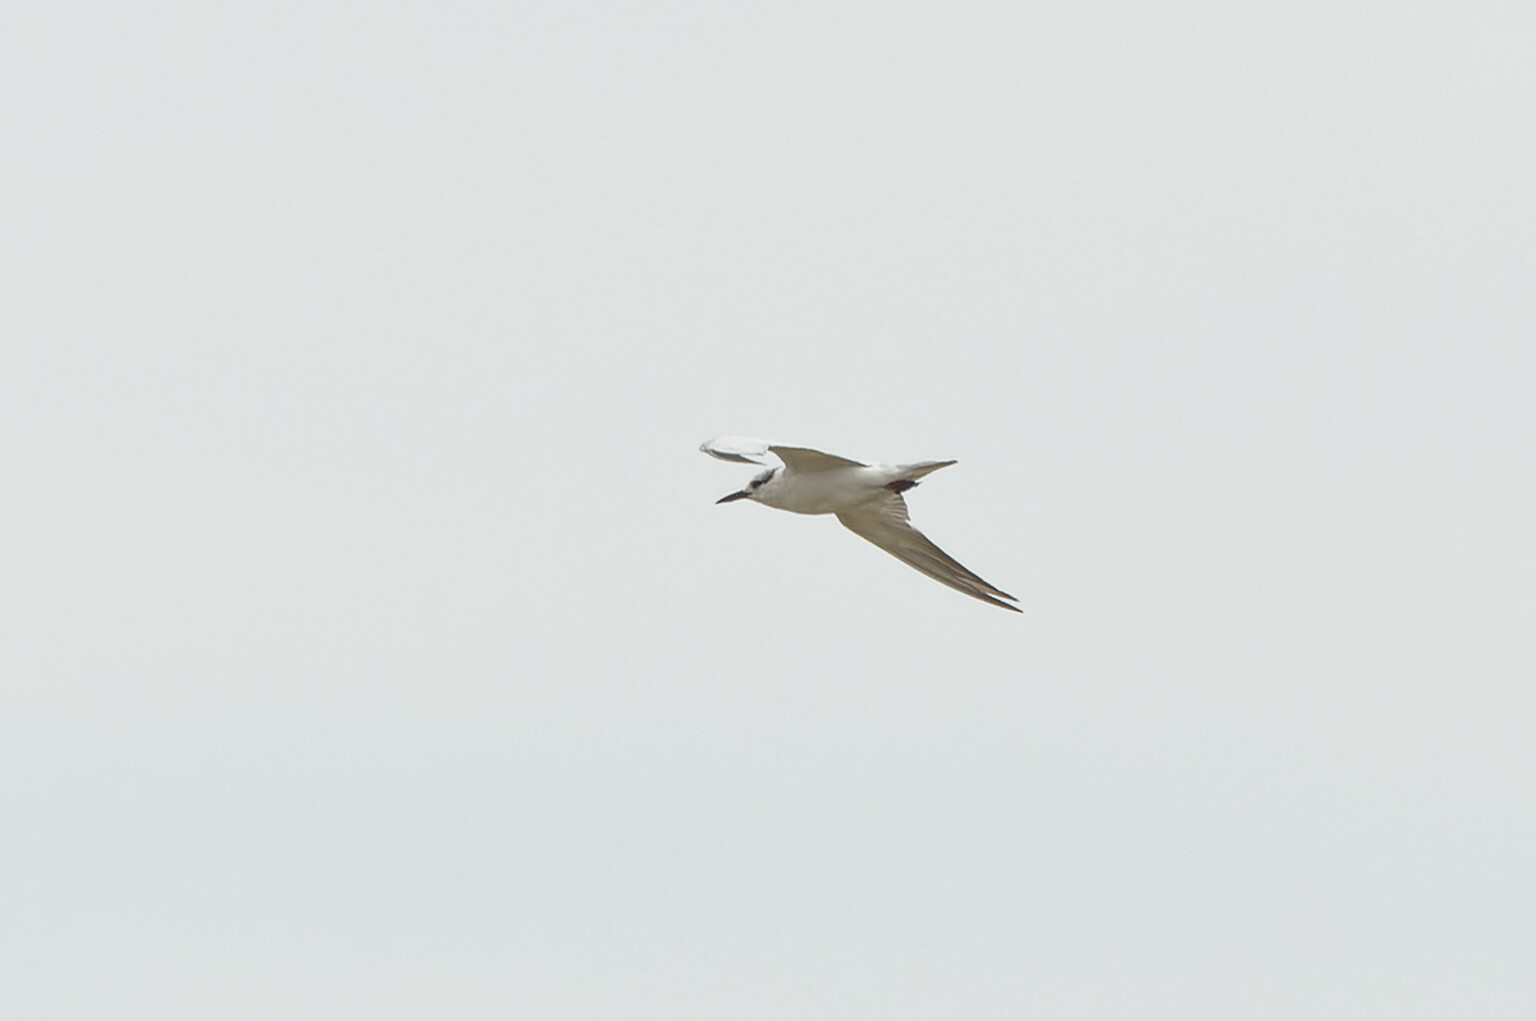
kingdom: Animalia
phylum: Chordata
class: Aves
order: Charadriiformes
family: Laridae
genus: Chlidonias
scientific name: Chlidonias hybrida
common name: Whiskered tern
